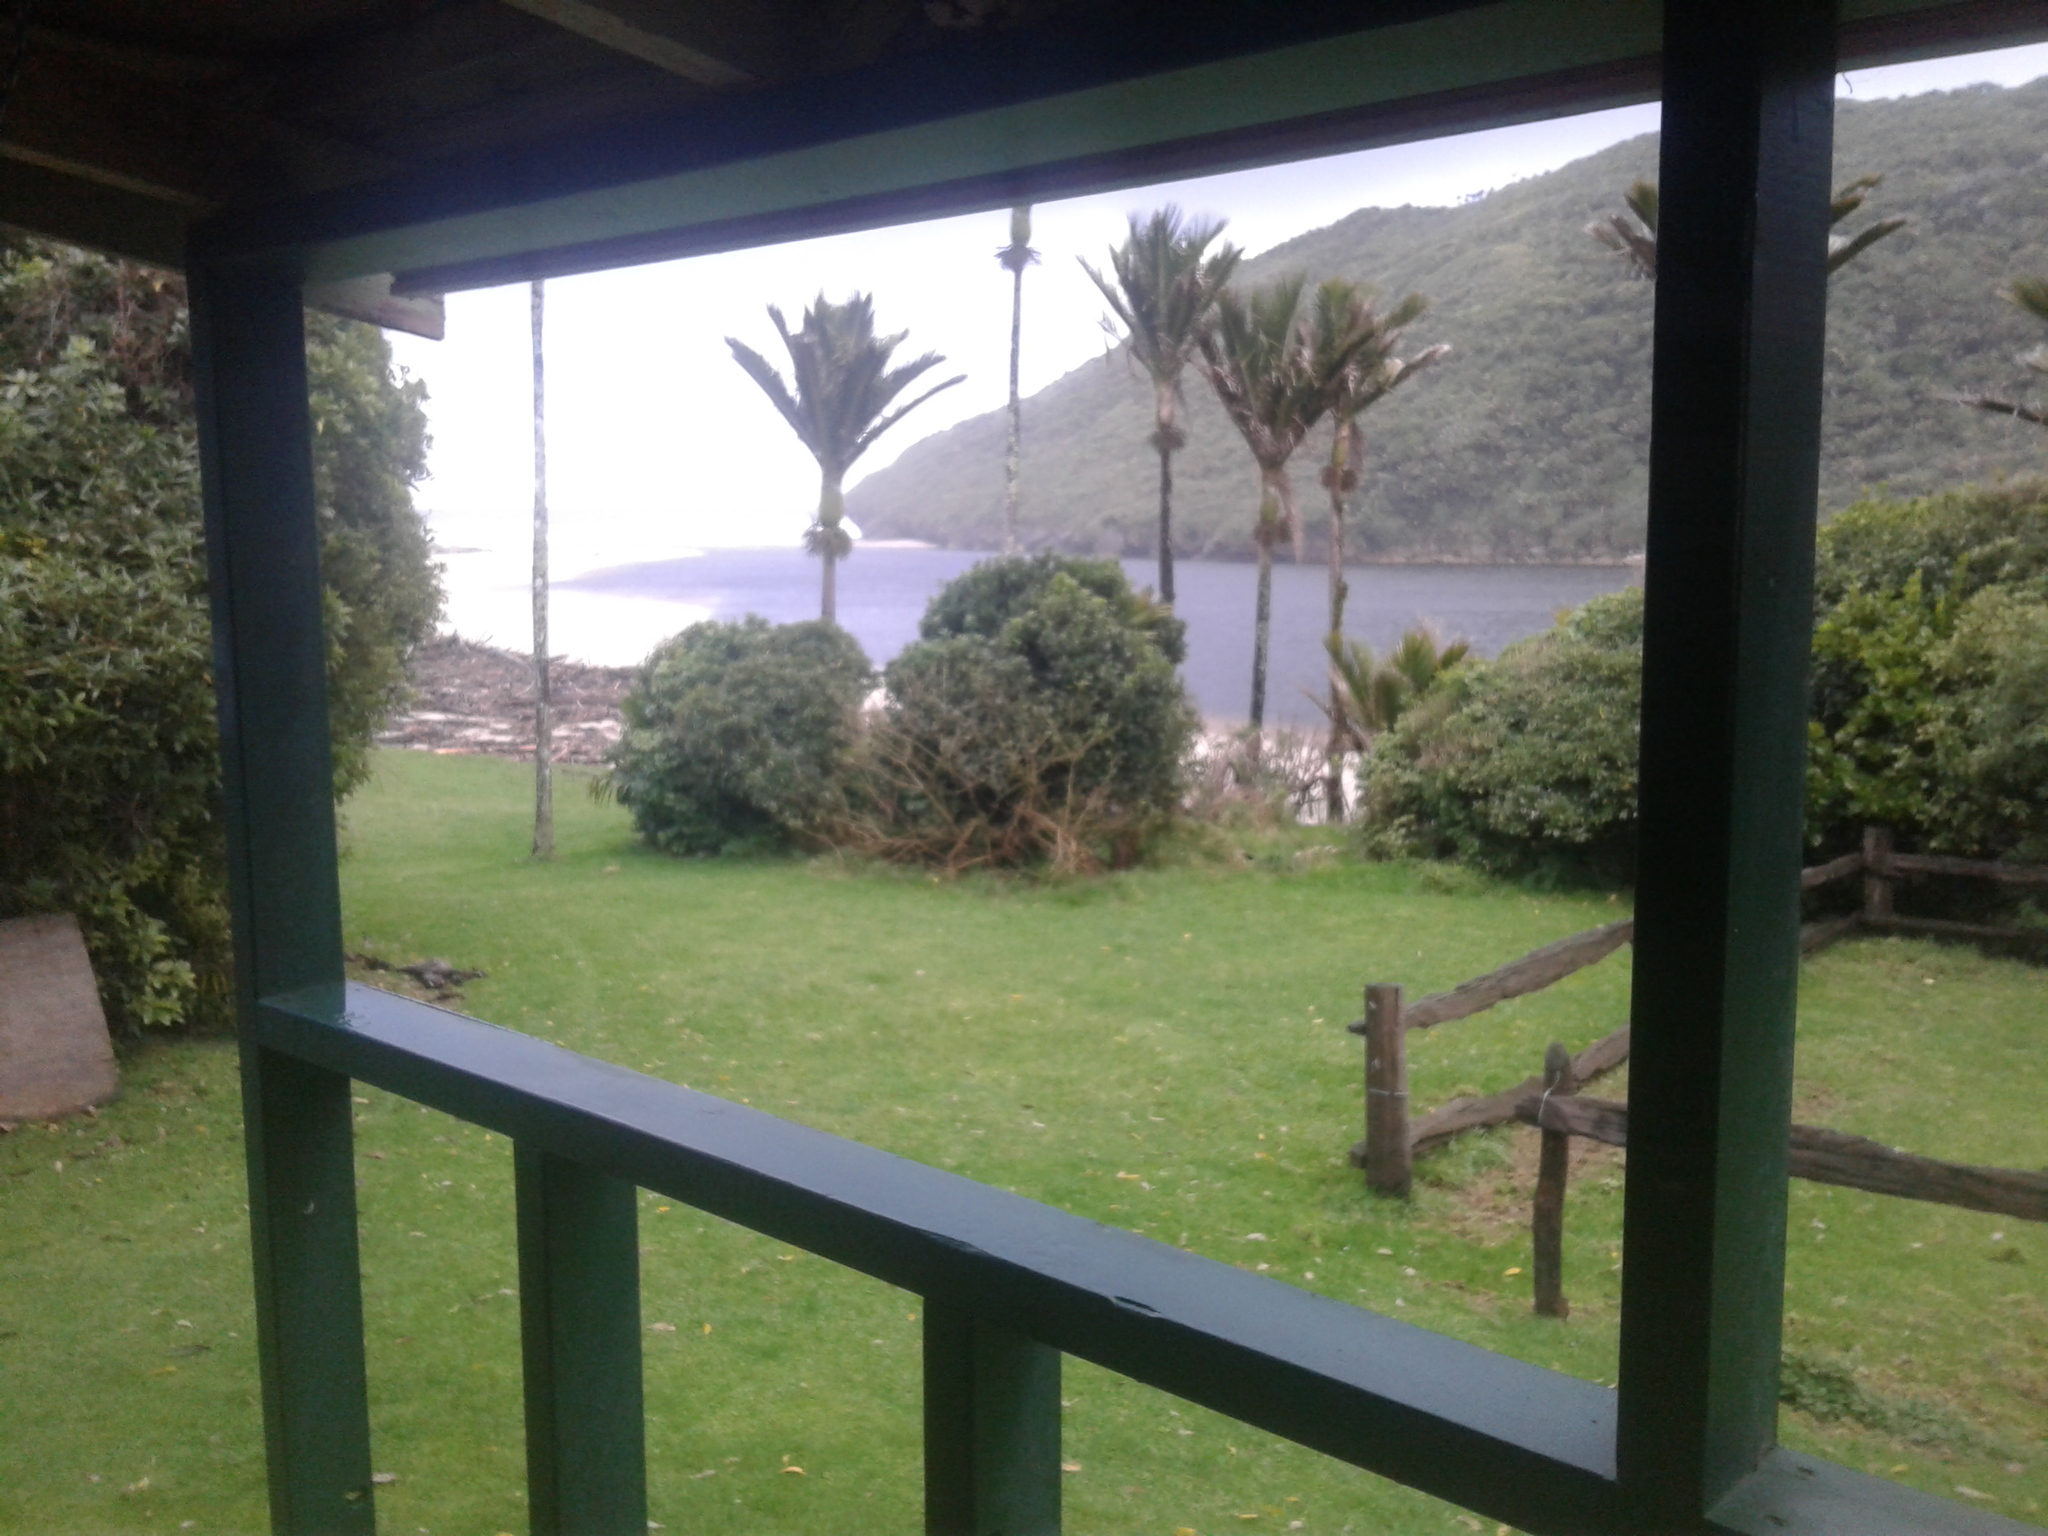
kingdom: Plantae
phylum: Tracheophyta
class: Liliopsida
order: Arecales
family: Arecaceae
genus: Rhopalostylis
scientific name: Rhopalostylis sapida
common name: Feather-duster palm
